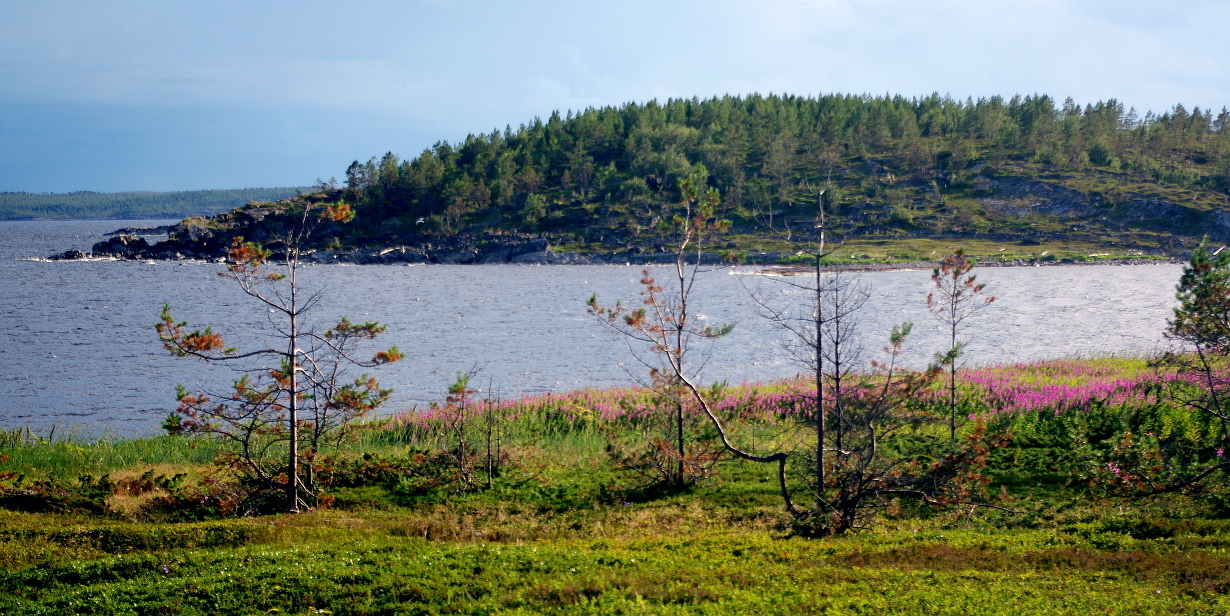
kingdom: Plantae
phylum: Tracheophyta
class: Magnoliopsida
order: Myrtales
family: Onagraceae
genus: Chamaenerion
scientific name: Chamaenerion angustifolium
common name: Fireweed
